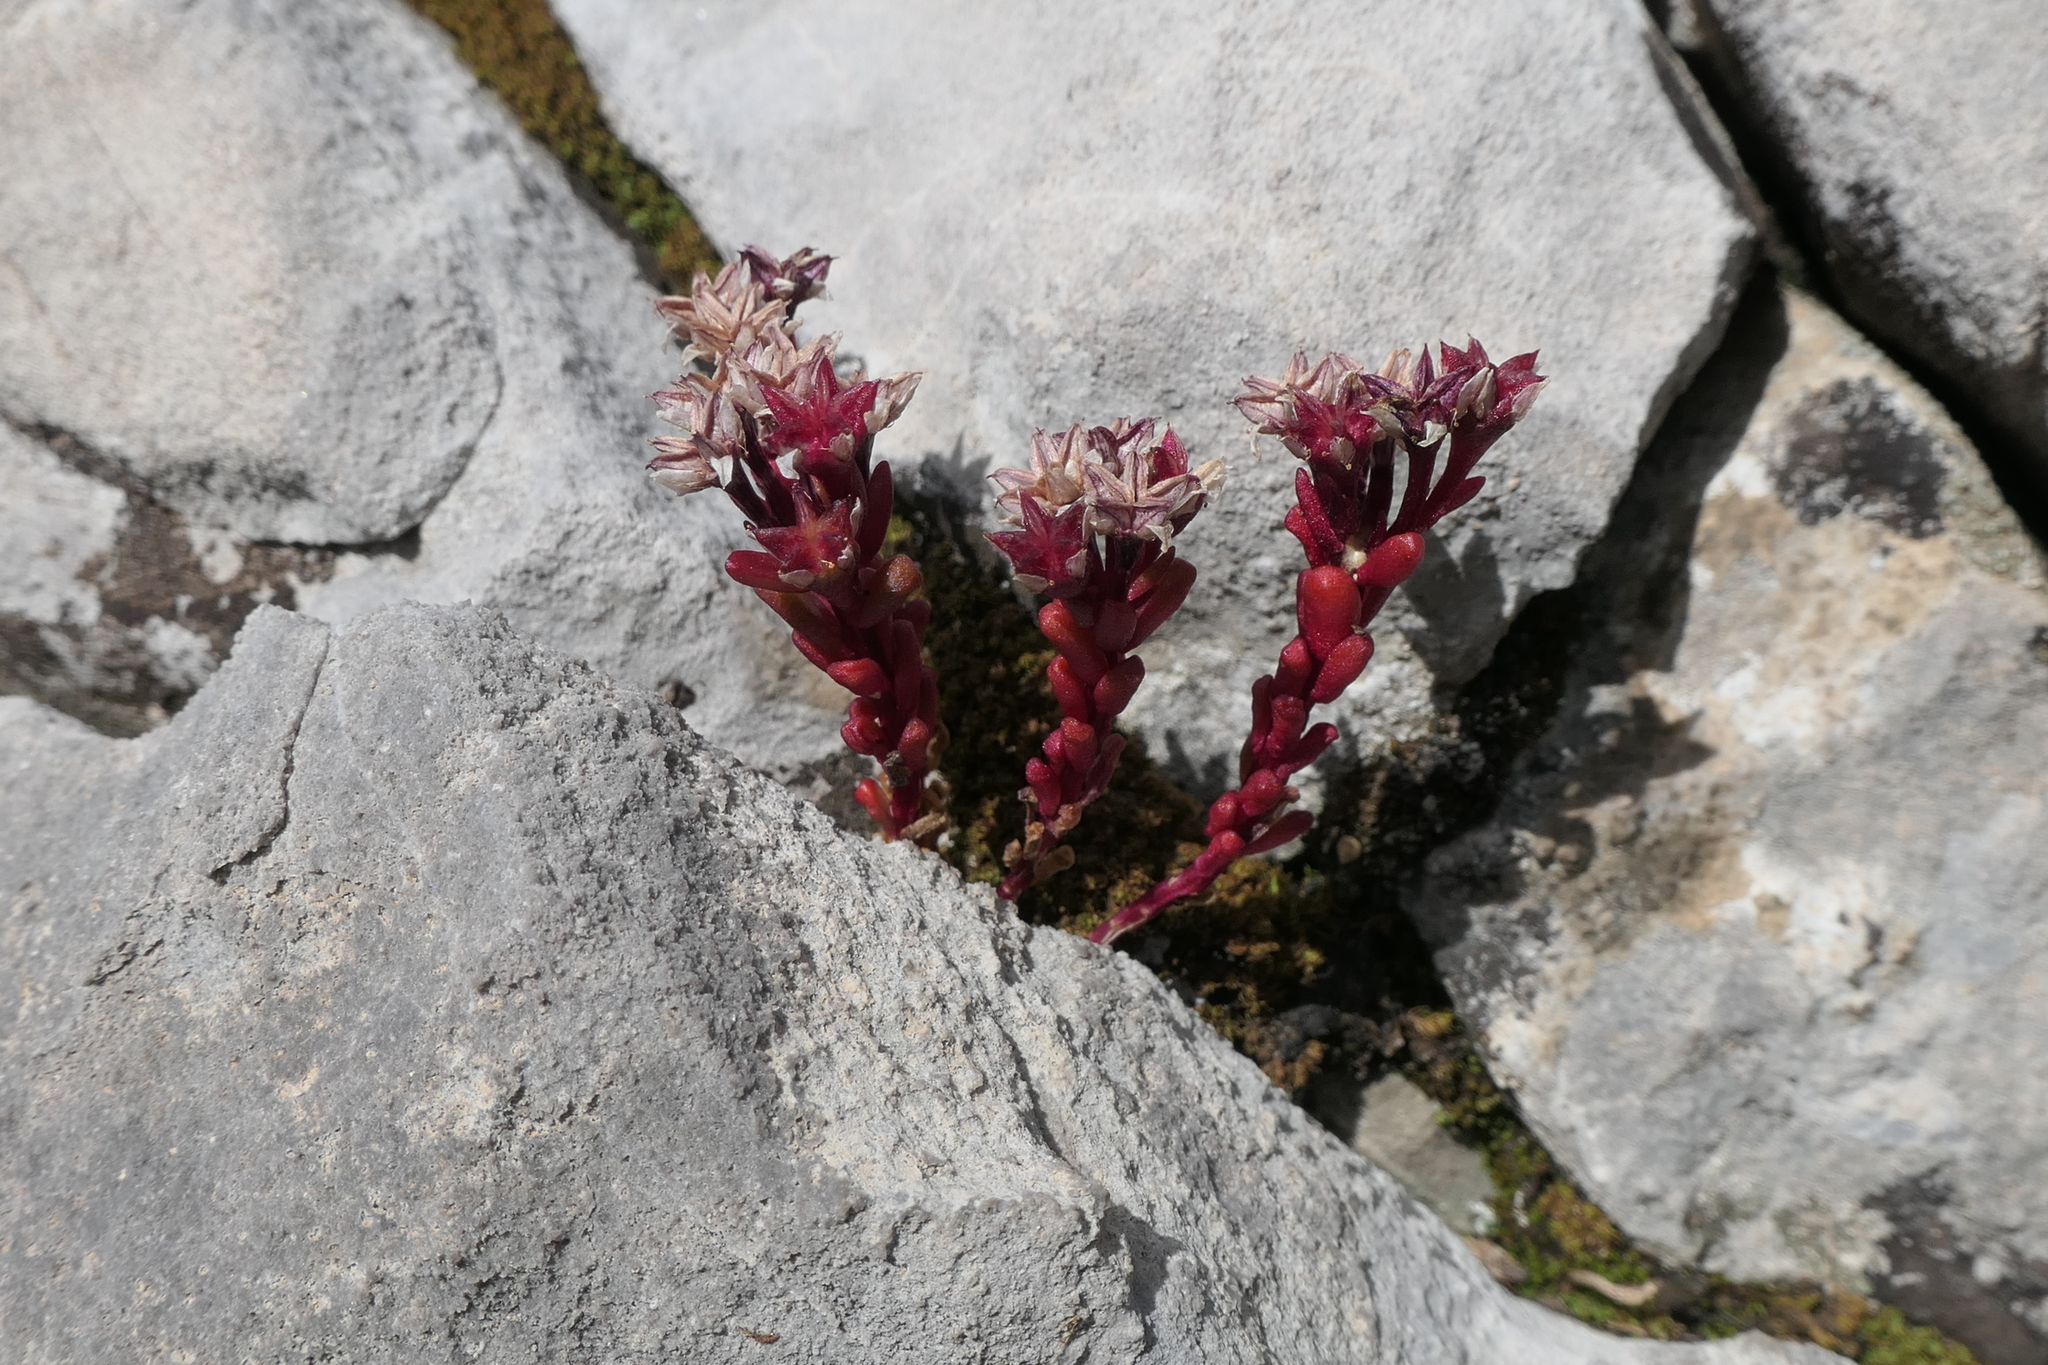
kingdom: Plantae
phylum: Tracheophyta
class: Magnoliopsida
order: Saxifragales
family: Crassulaceae
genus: Sedum
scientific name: Sedum atratum
